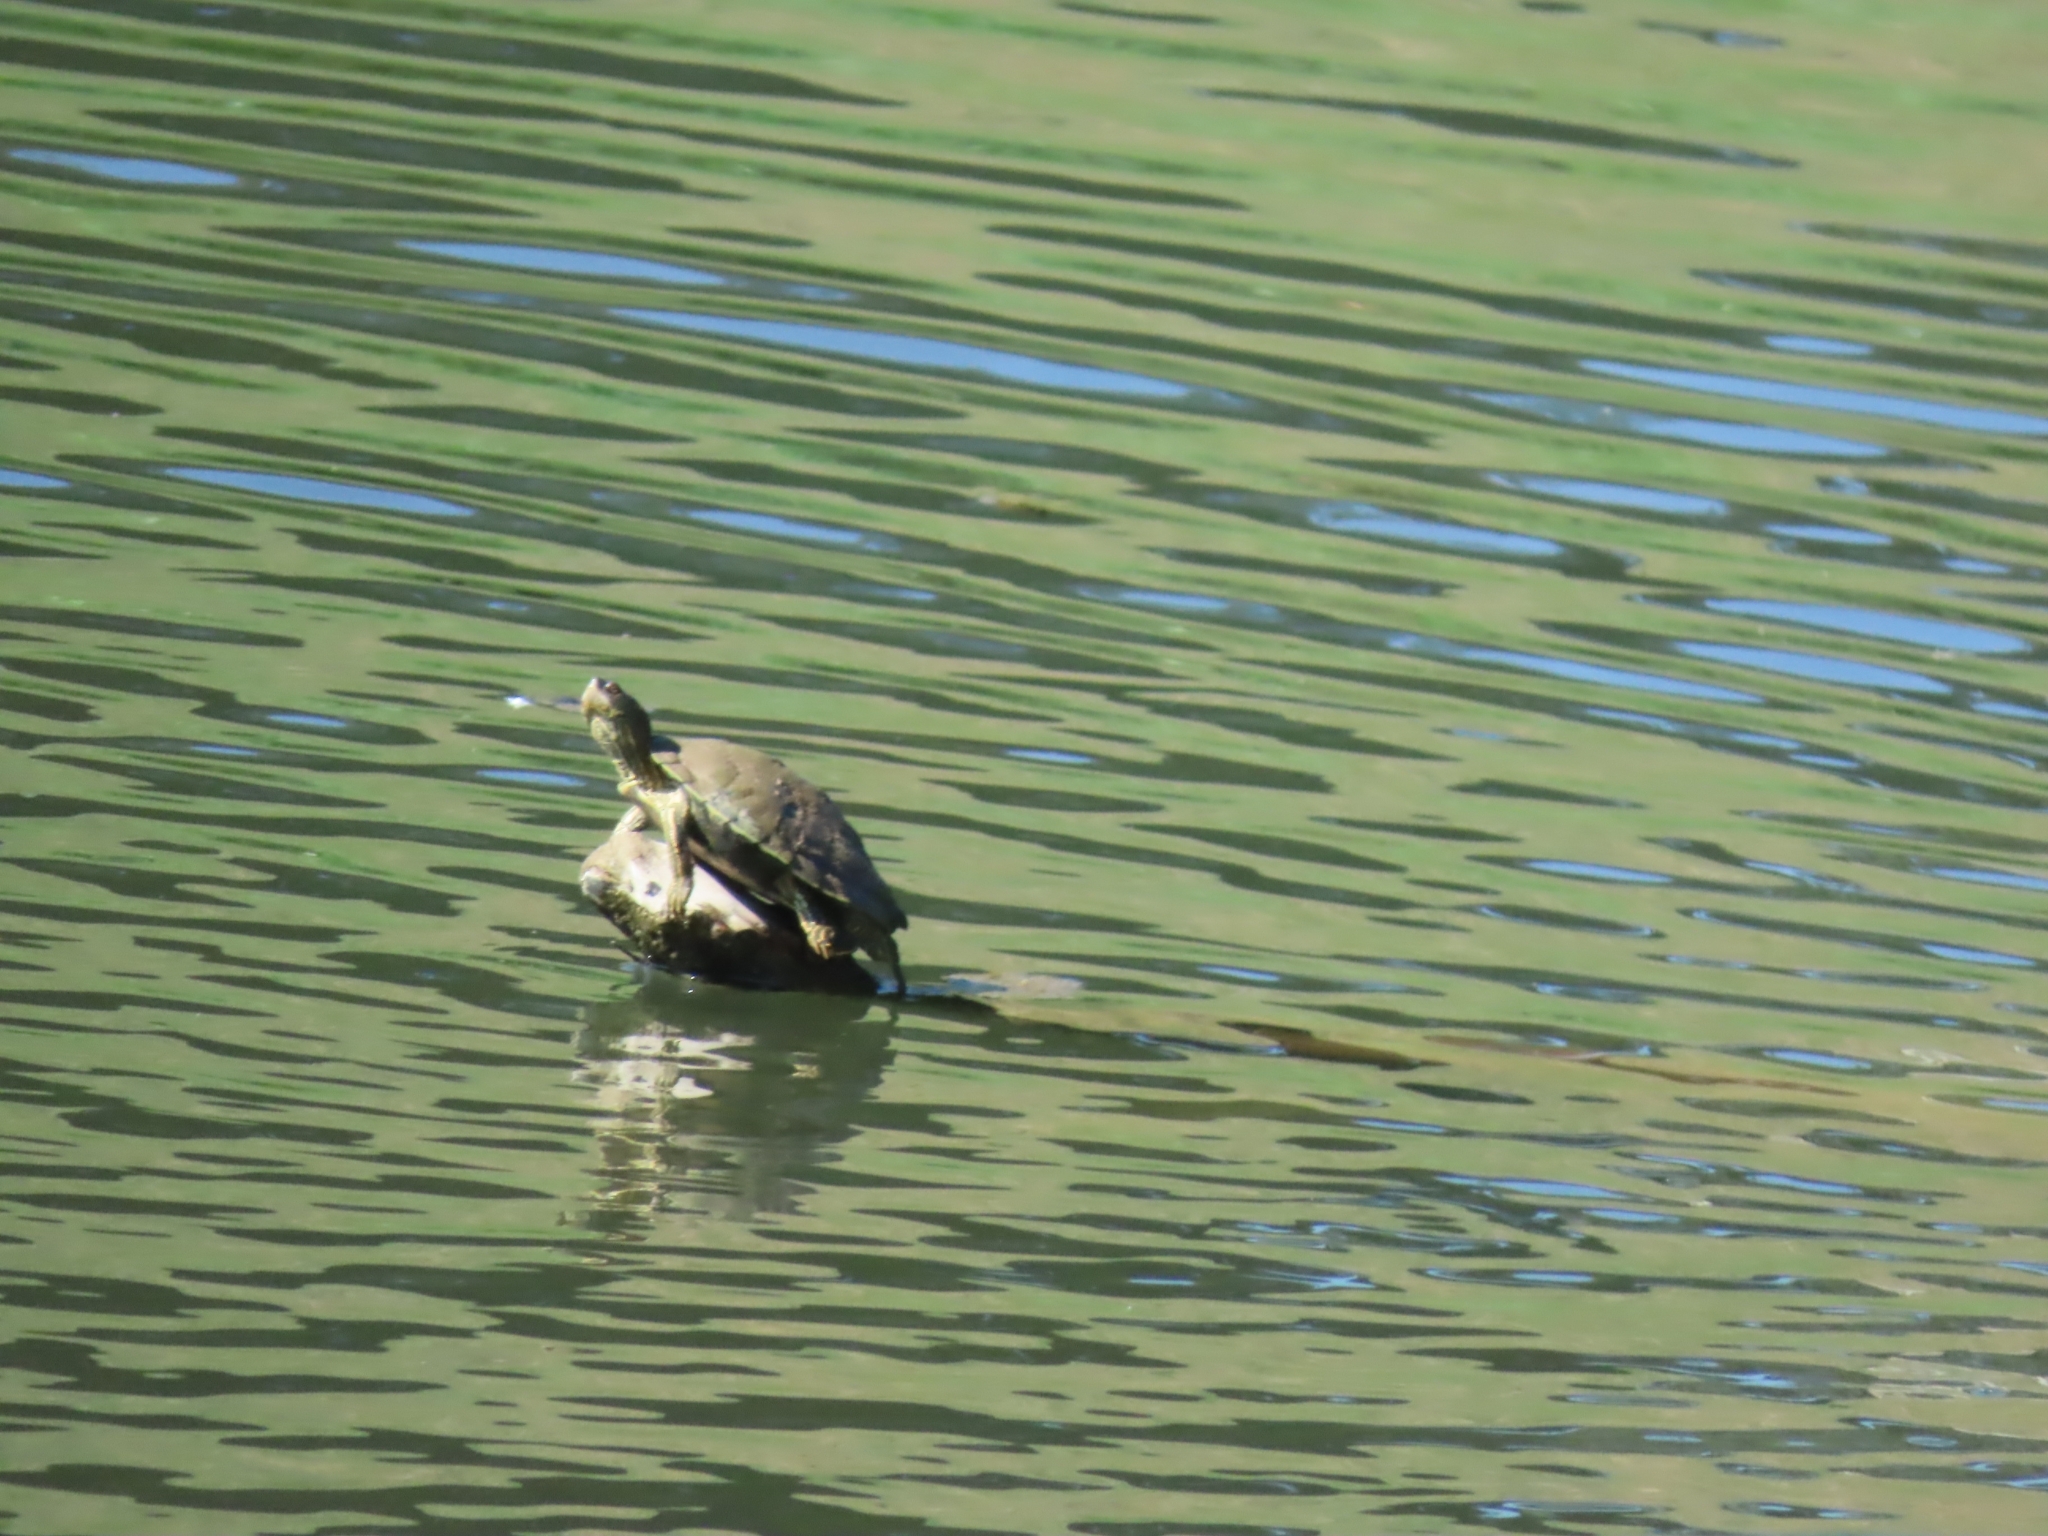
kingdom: Animalia
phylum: Chordata
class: Testudines
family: Emydidae
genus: Graptemys
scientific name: Graptemys versa
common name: Texas map turtle
